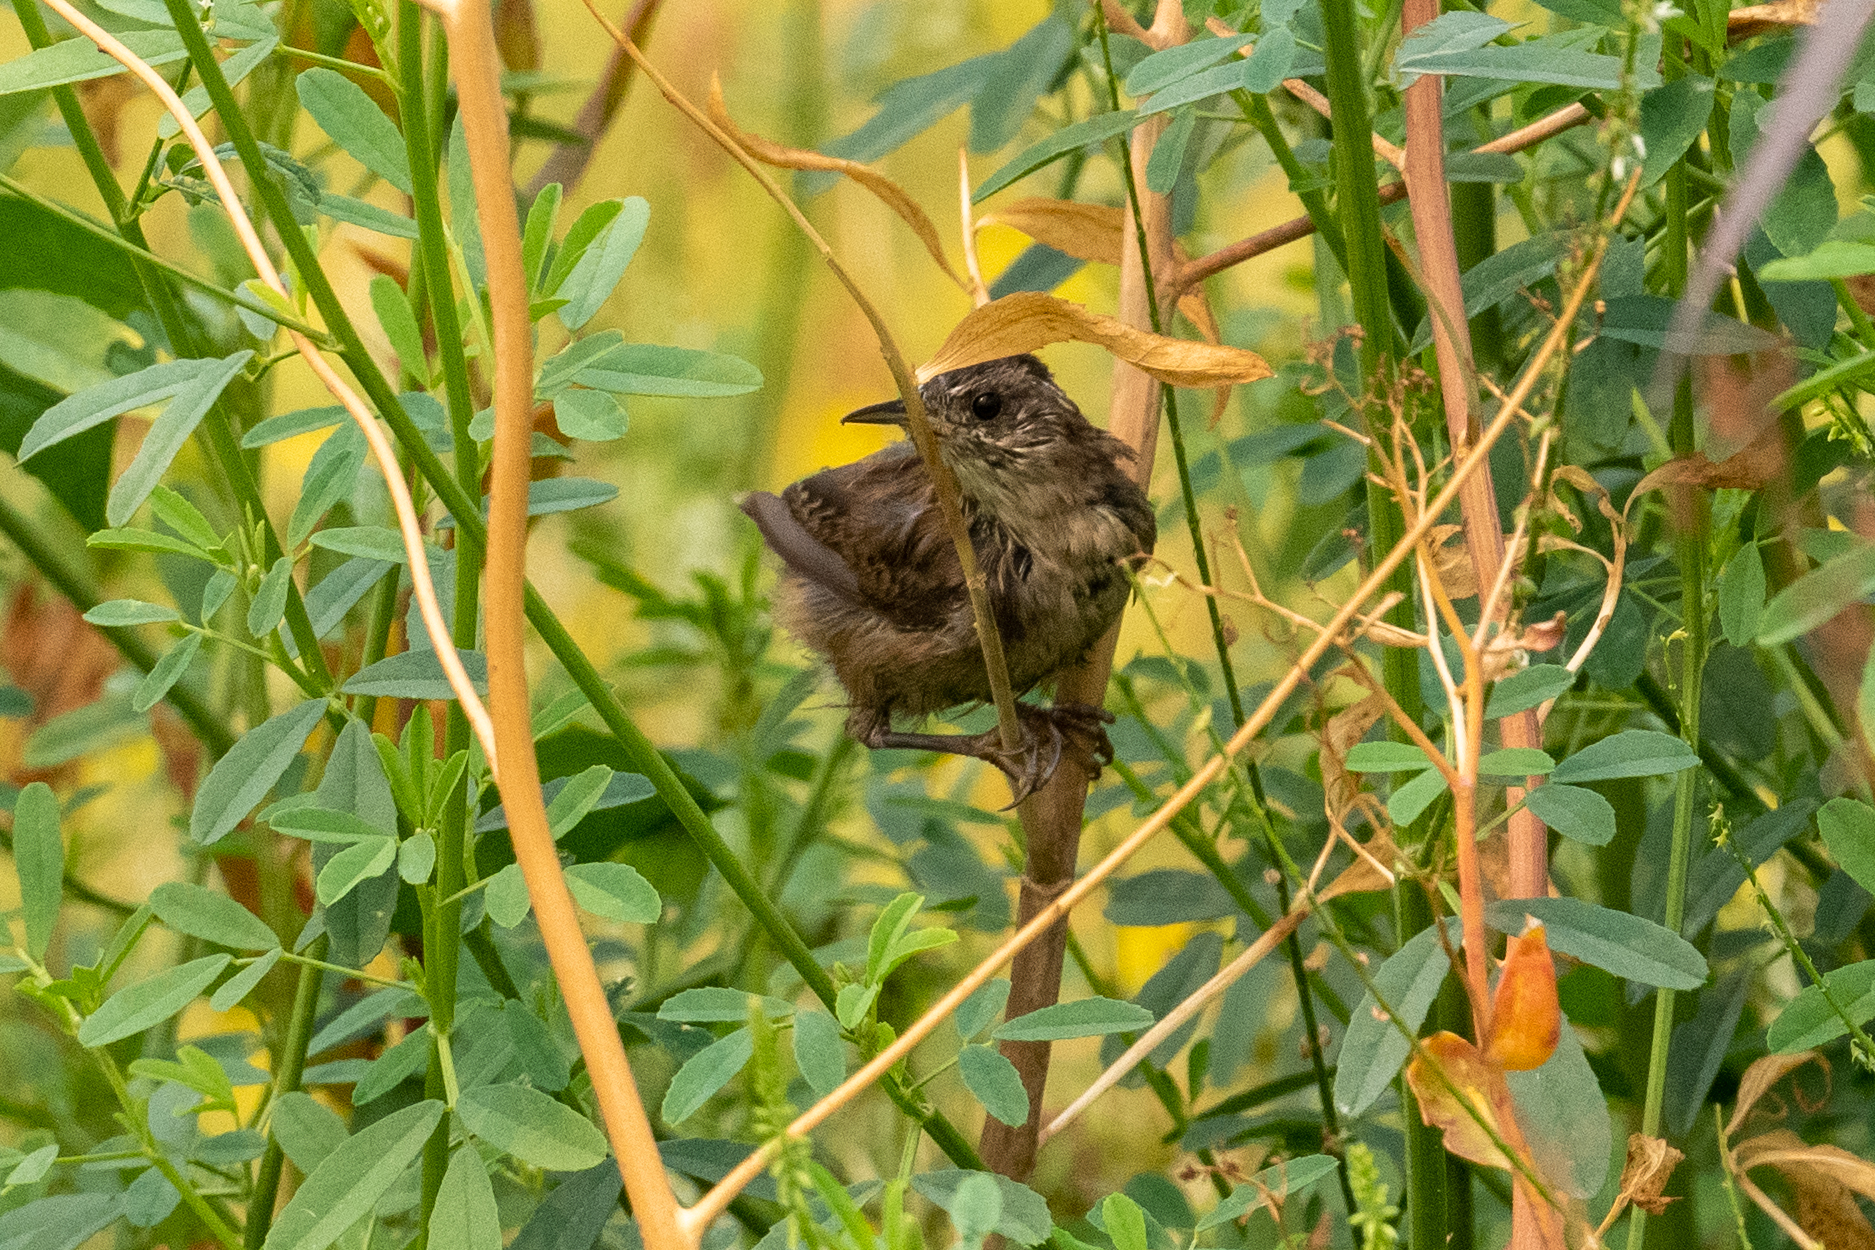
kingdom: Animalia
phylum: Chordata
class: Aves
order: Passeriformes
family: Troglodytidae
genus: Cistothorus
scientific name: Cistothorus palustris
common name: Marsh wren
